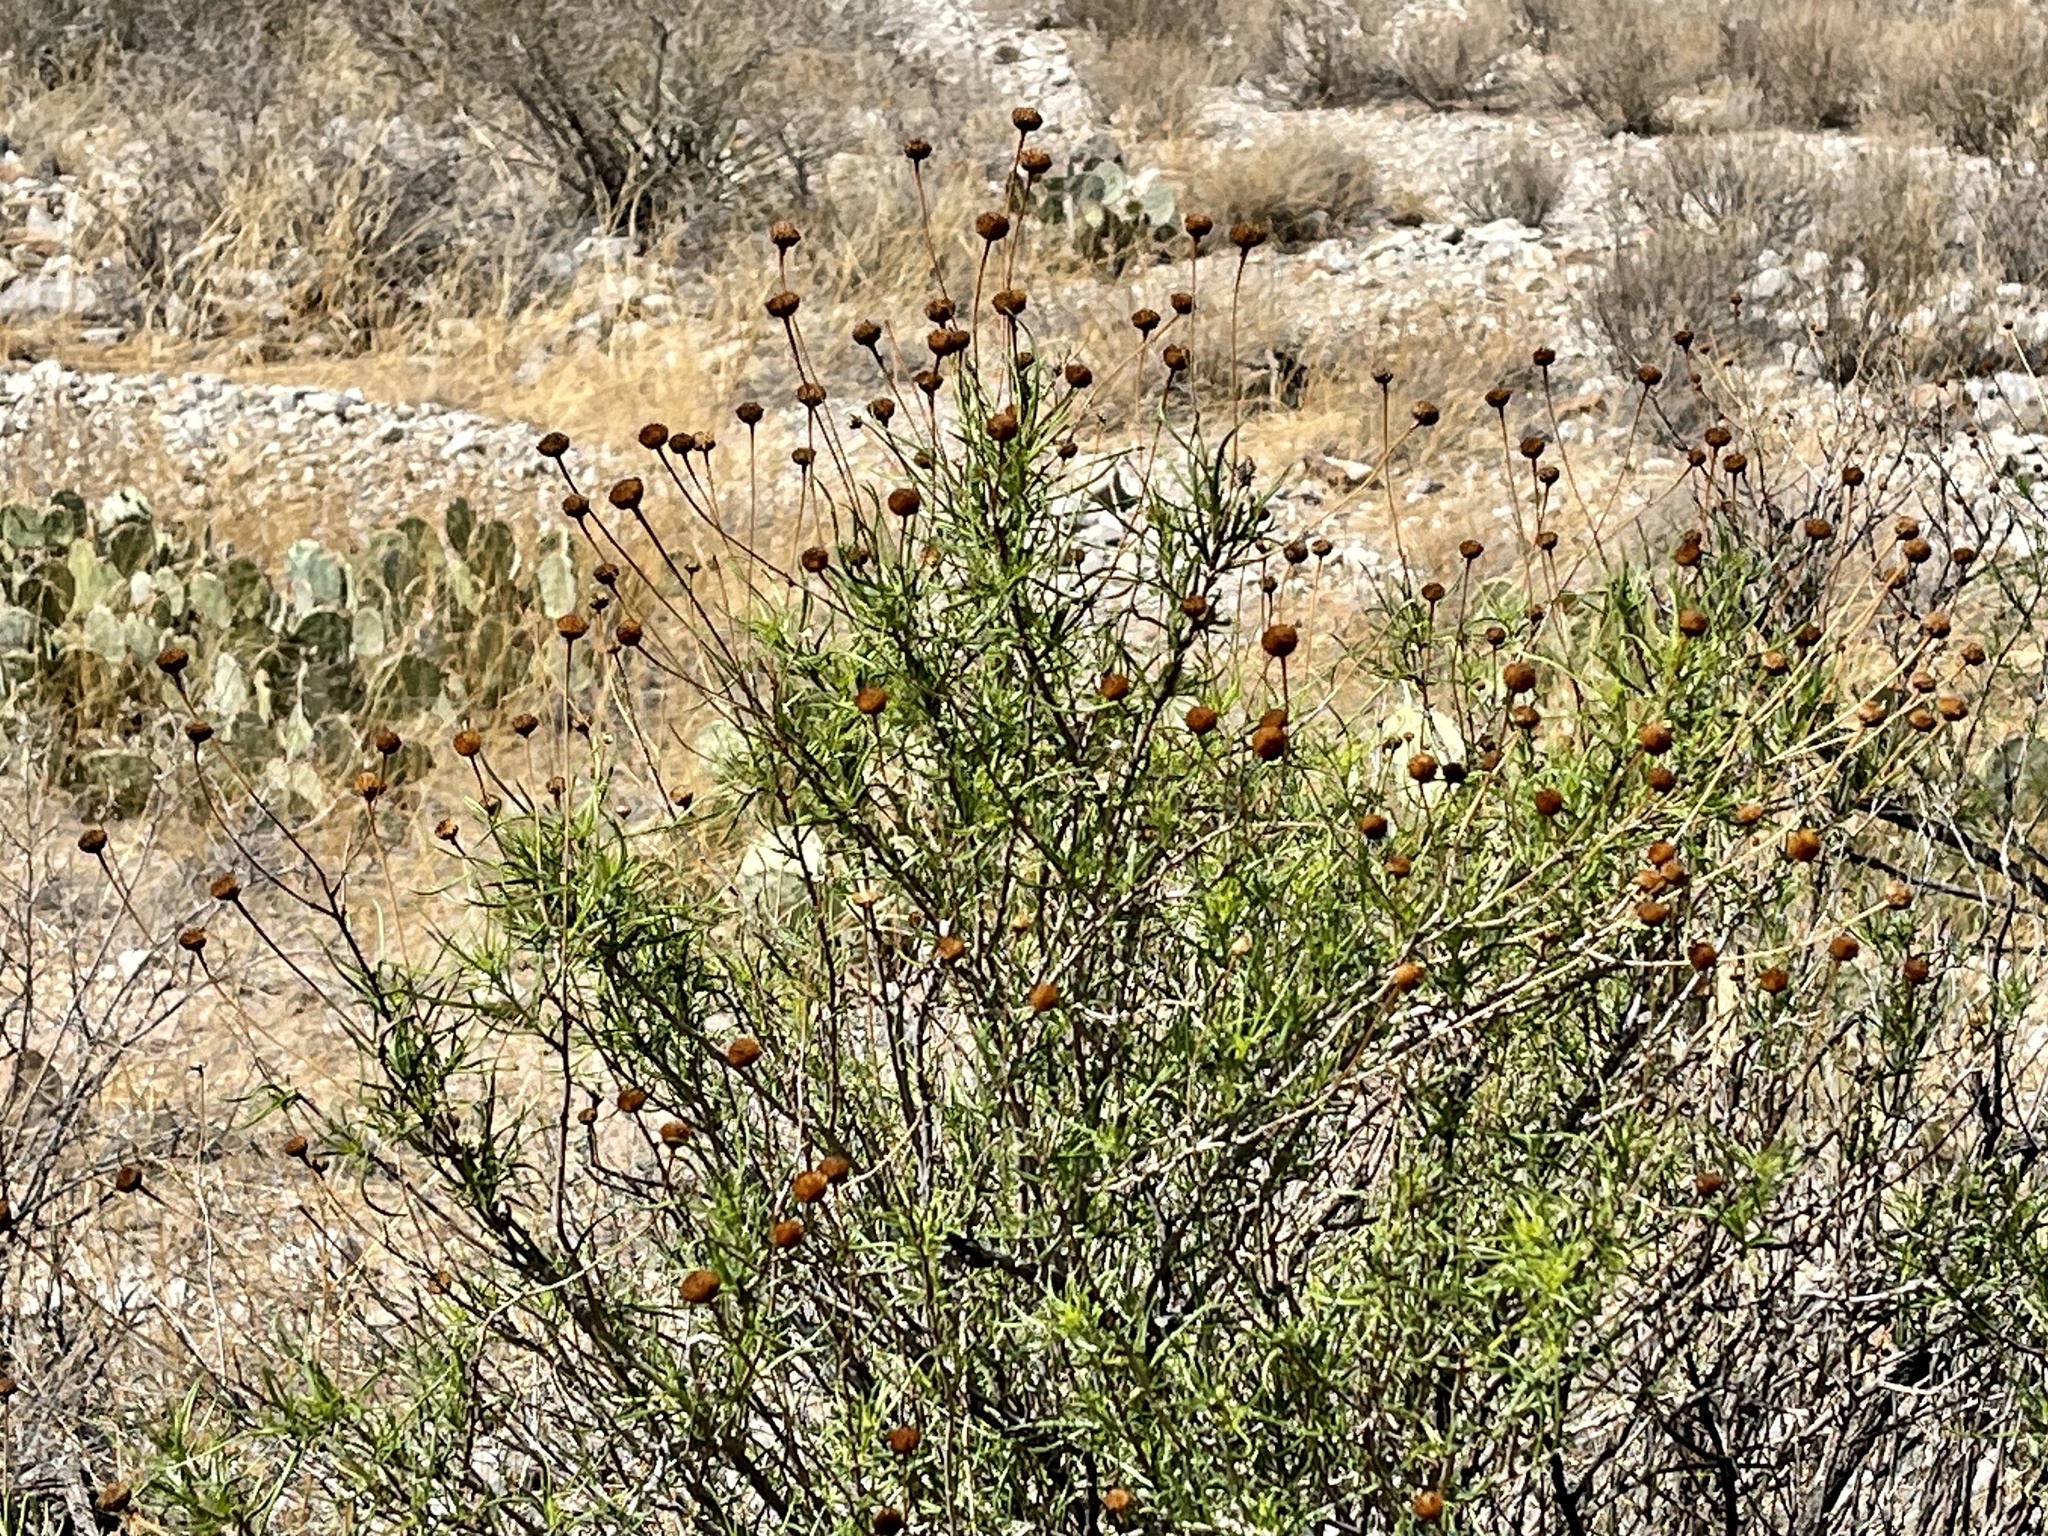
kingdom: Plantae
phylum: Tracheophyta
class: Magnoliopsida
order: Asterales
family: Asteraceae
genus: Sidneya
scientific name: Sidneya tenuifolia
